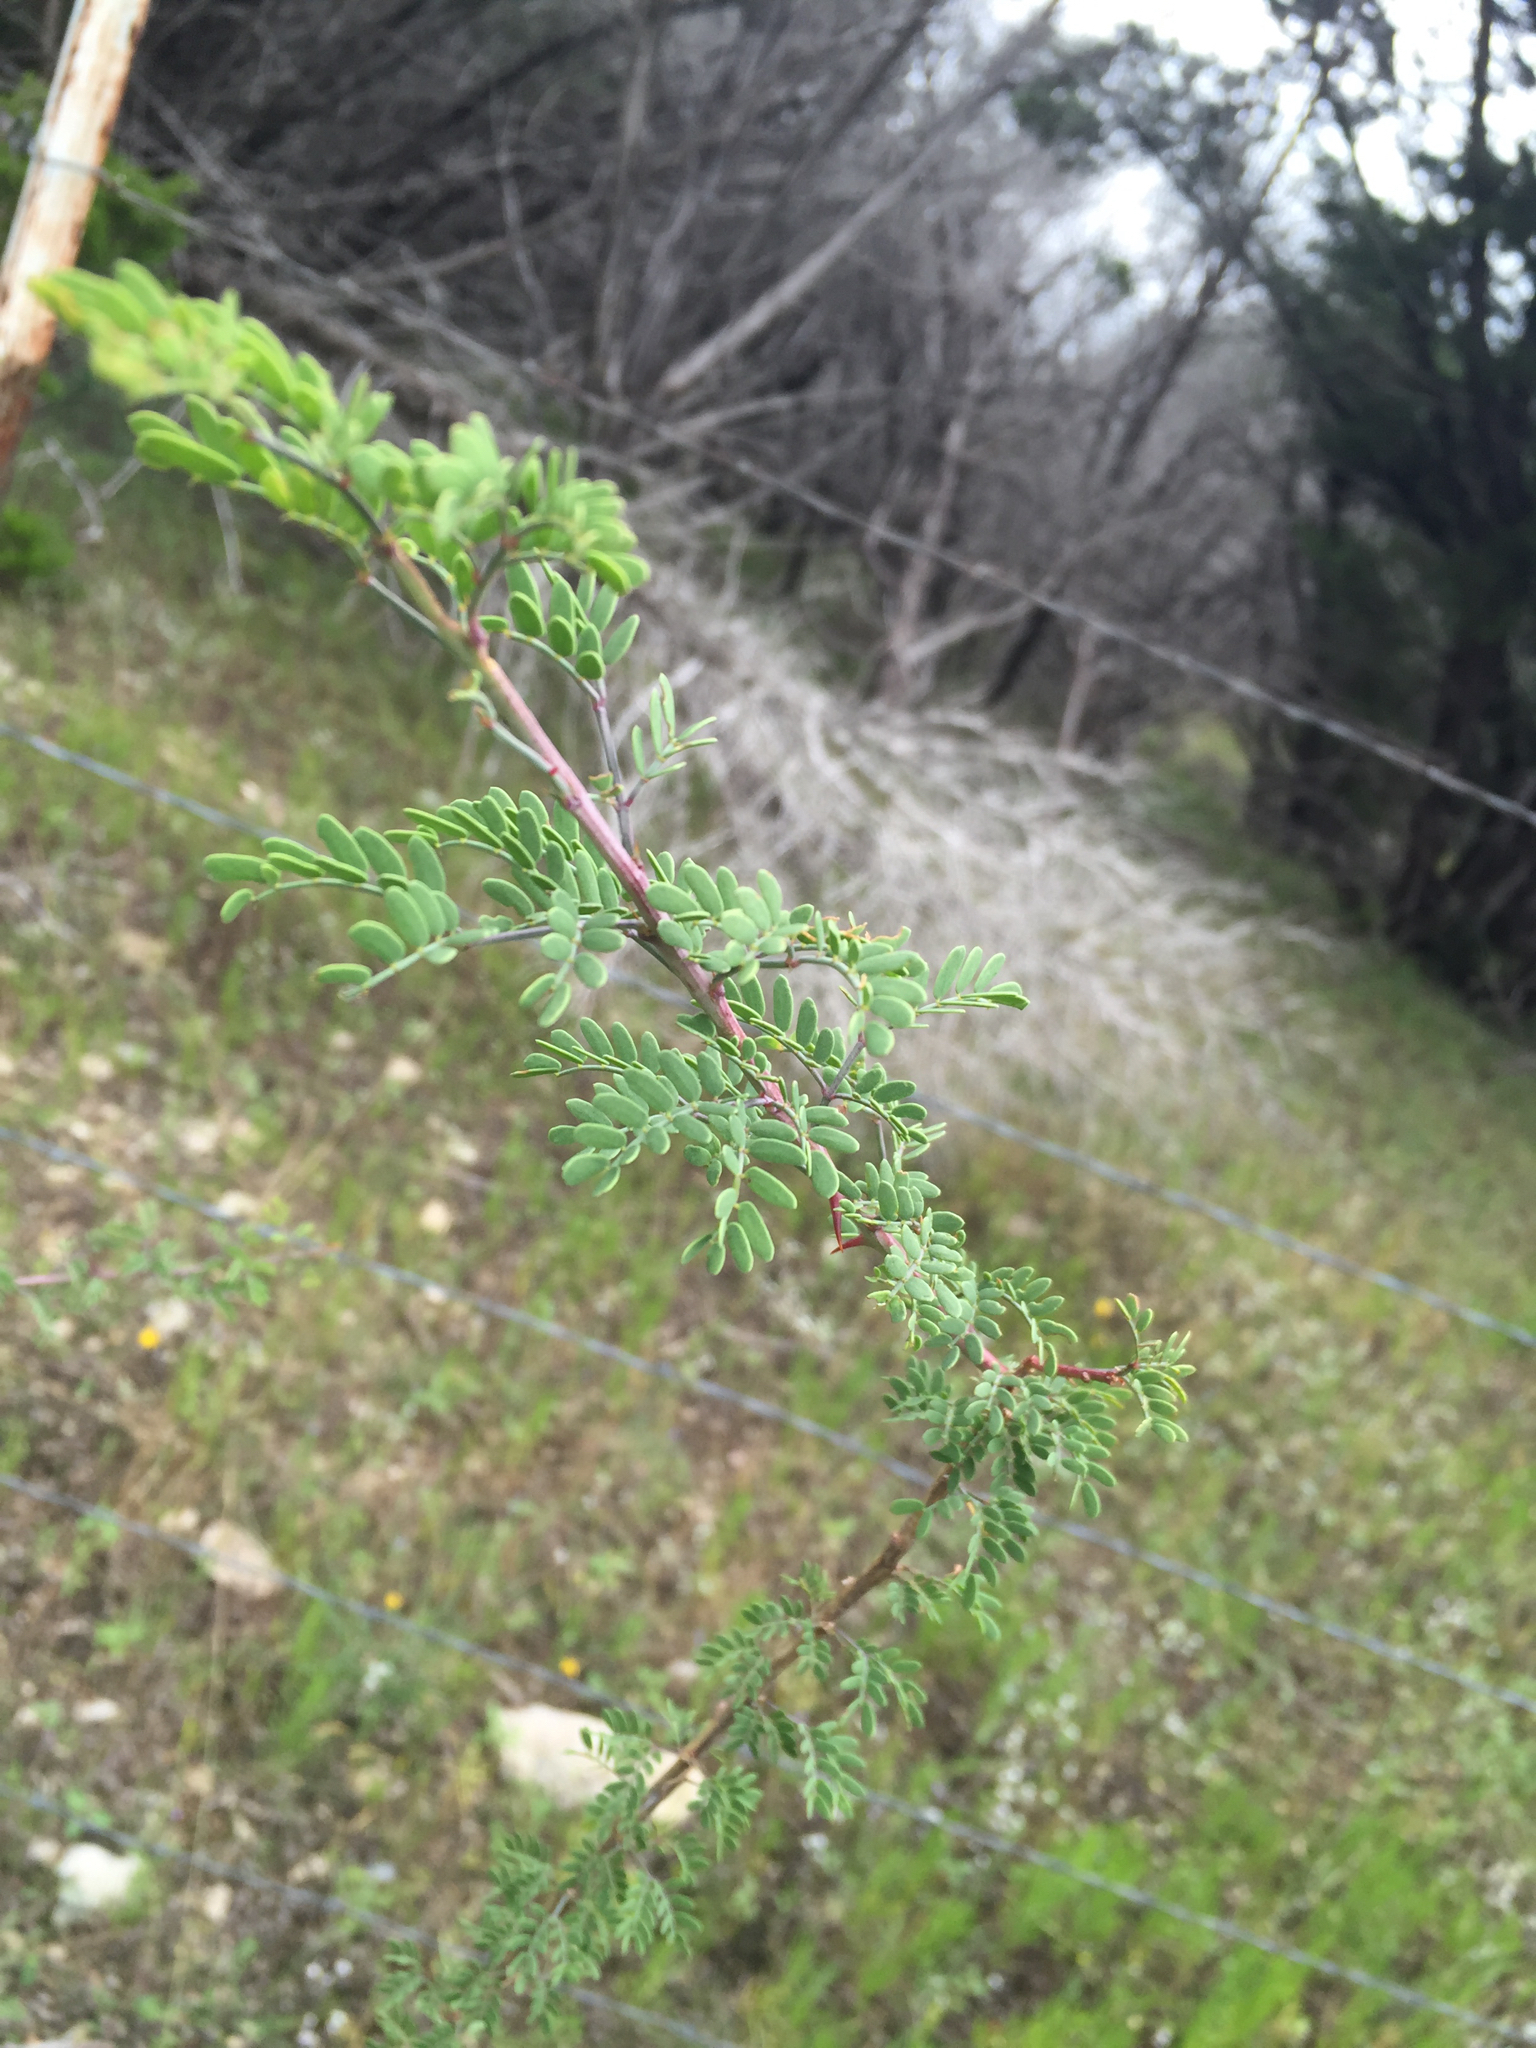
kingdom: Plantae
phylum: Tracheophyta
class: Magnoliopsida
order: Fabales
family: Fabaceae
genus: Prosopis
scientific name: Prosopis glandulosa
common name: Honey mesquite
